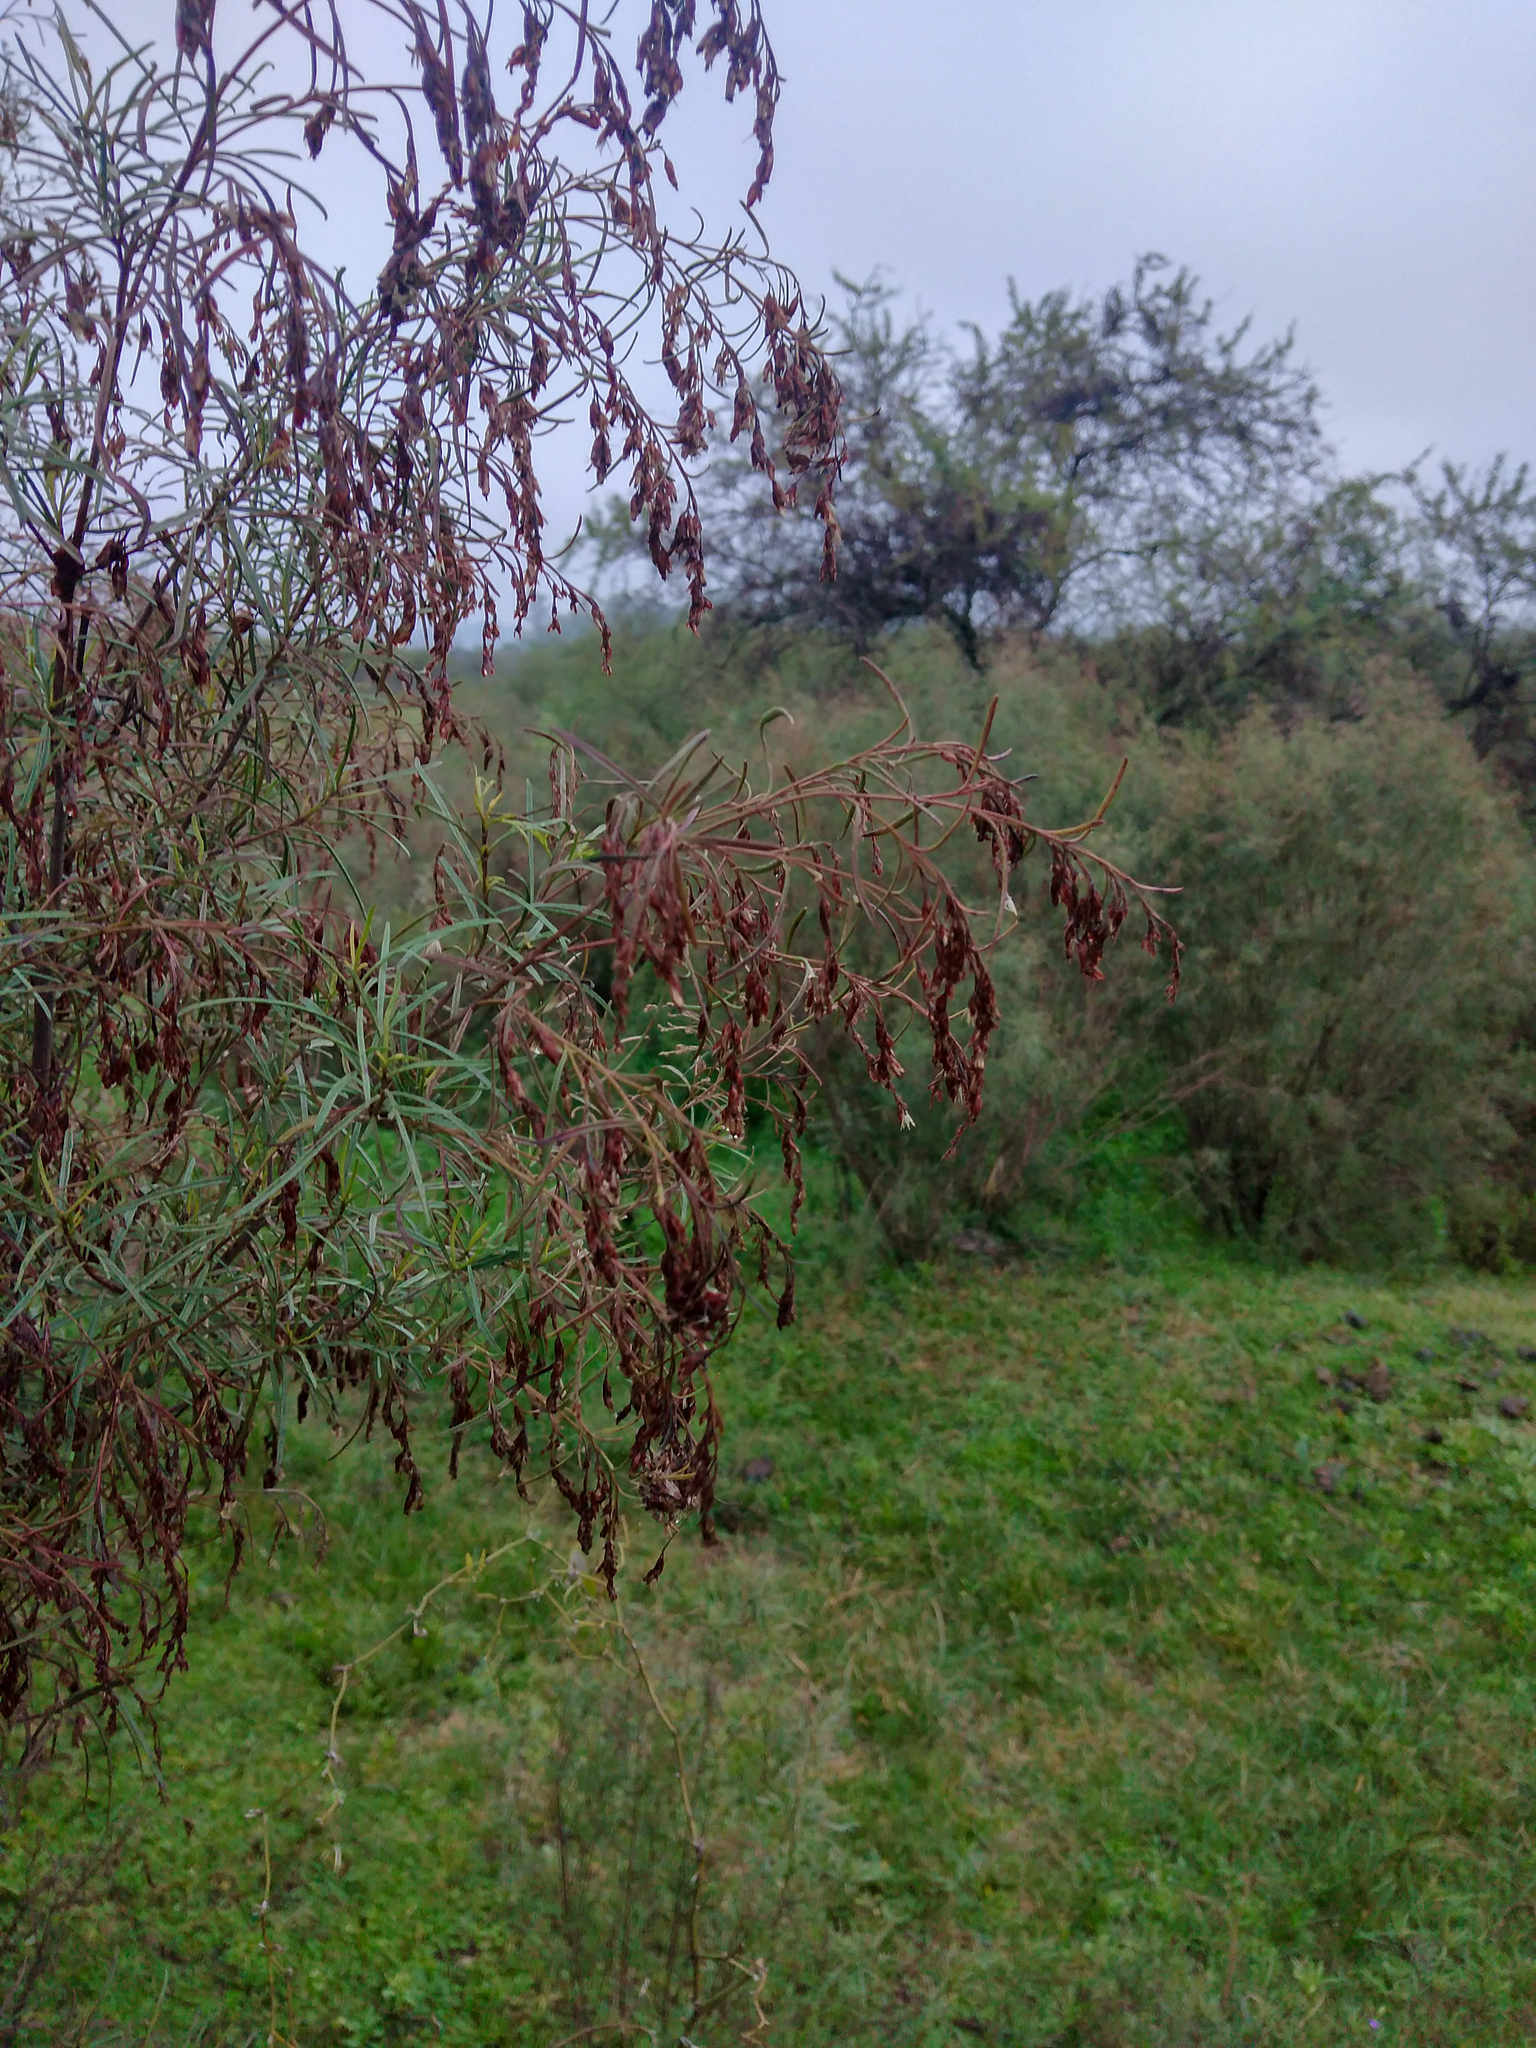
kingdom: Plantae
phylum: Tracheophyta
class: Magnoliopsida
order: Asterales
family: Asteraceae
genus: Acanthostyles
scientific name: Acanthostyles buniifolius
